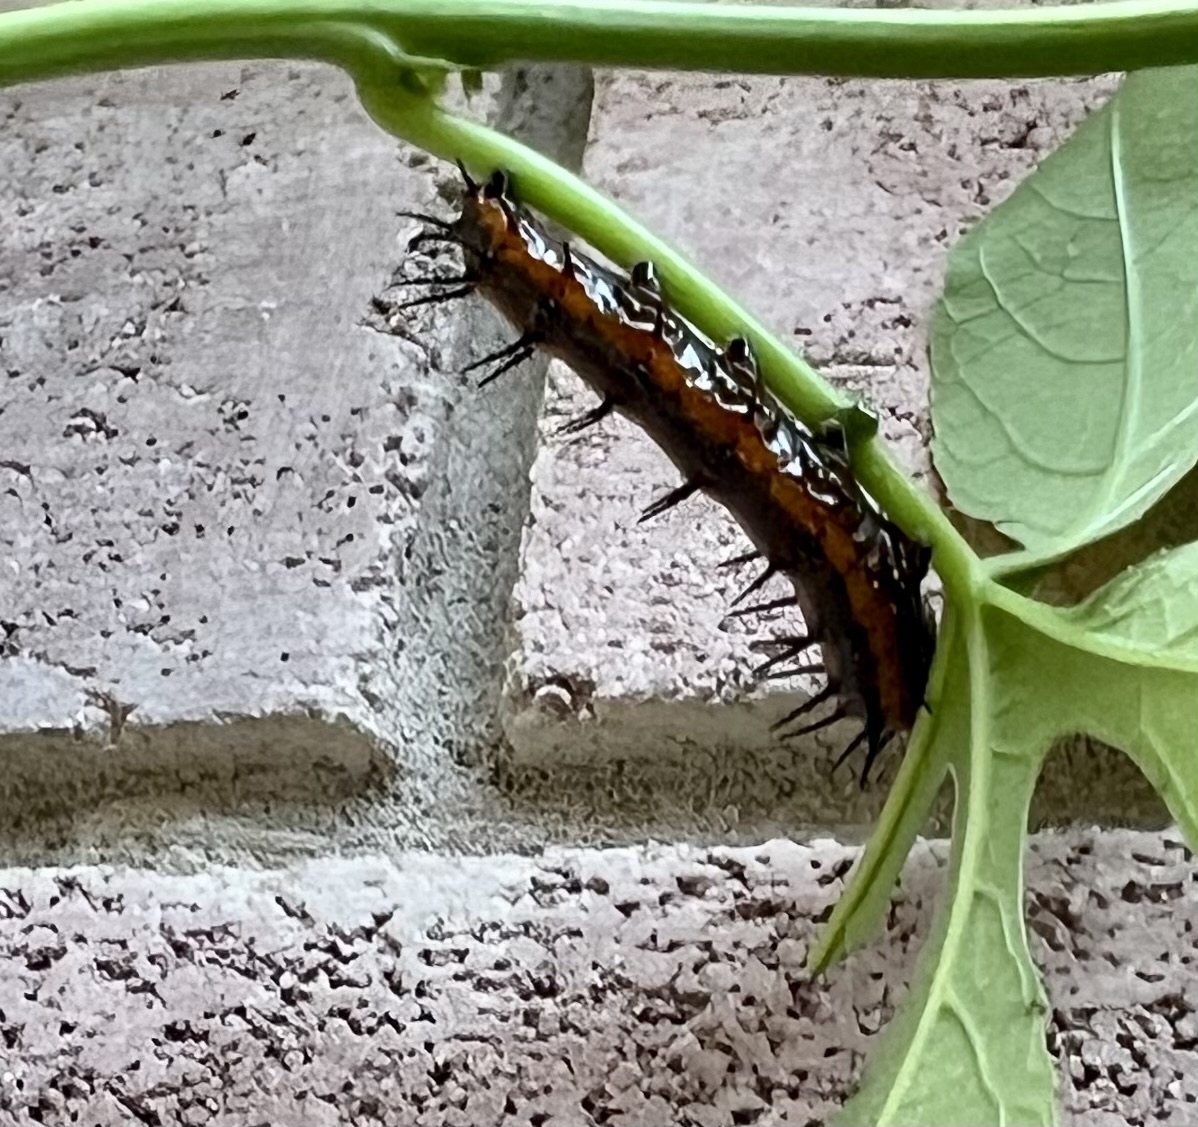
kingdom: Animalia
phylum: Arthropoda
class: Insecta
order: Lepidoptera
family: Nymphalidae
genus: Dione
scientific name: Dione vanillae
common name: Gulf fritillary
